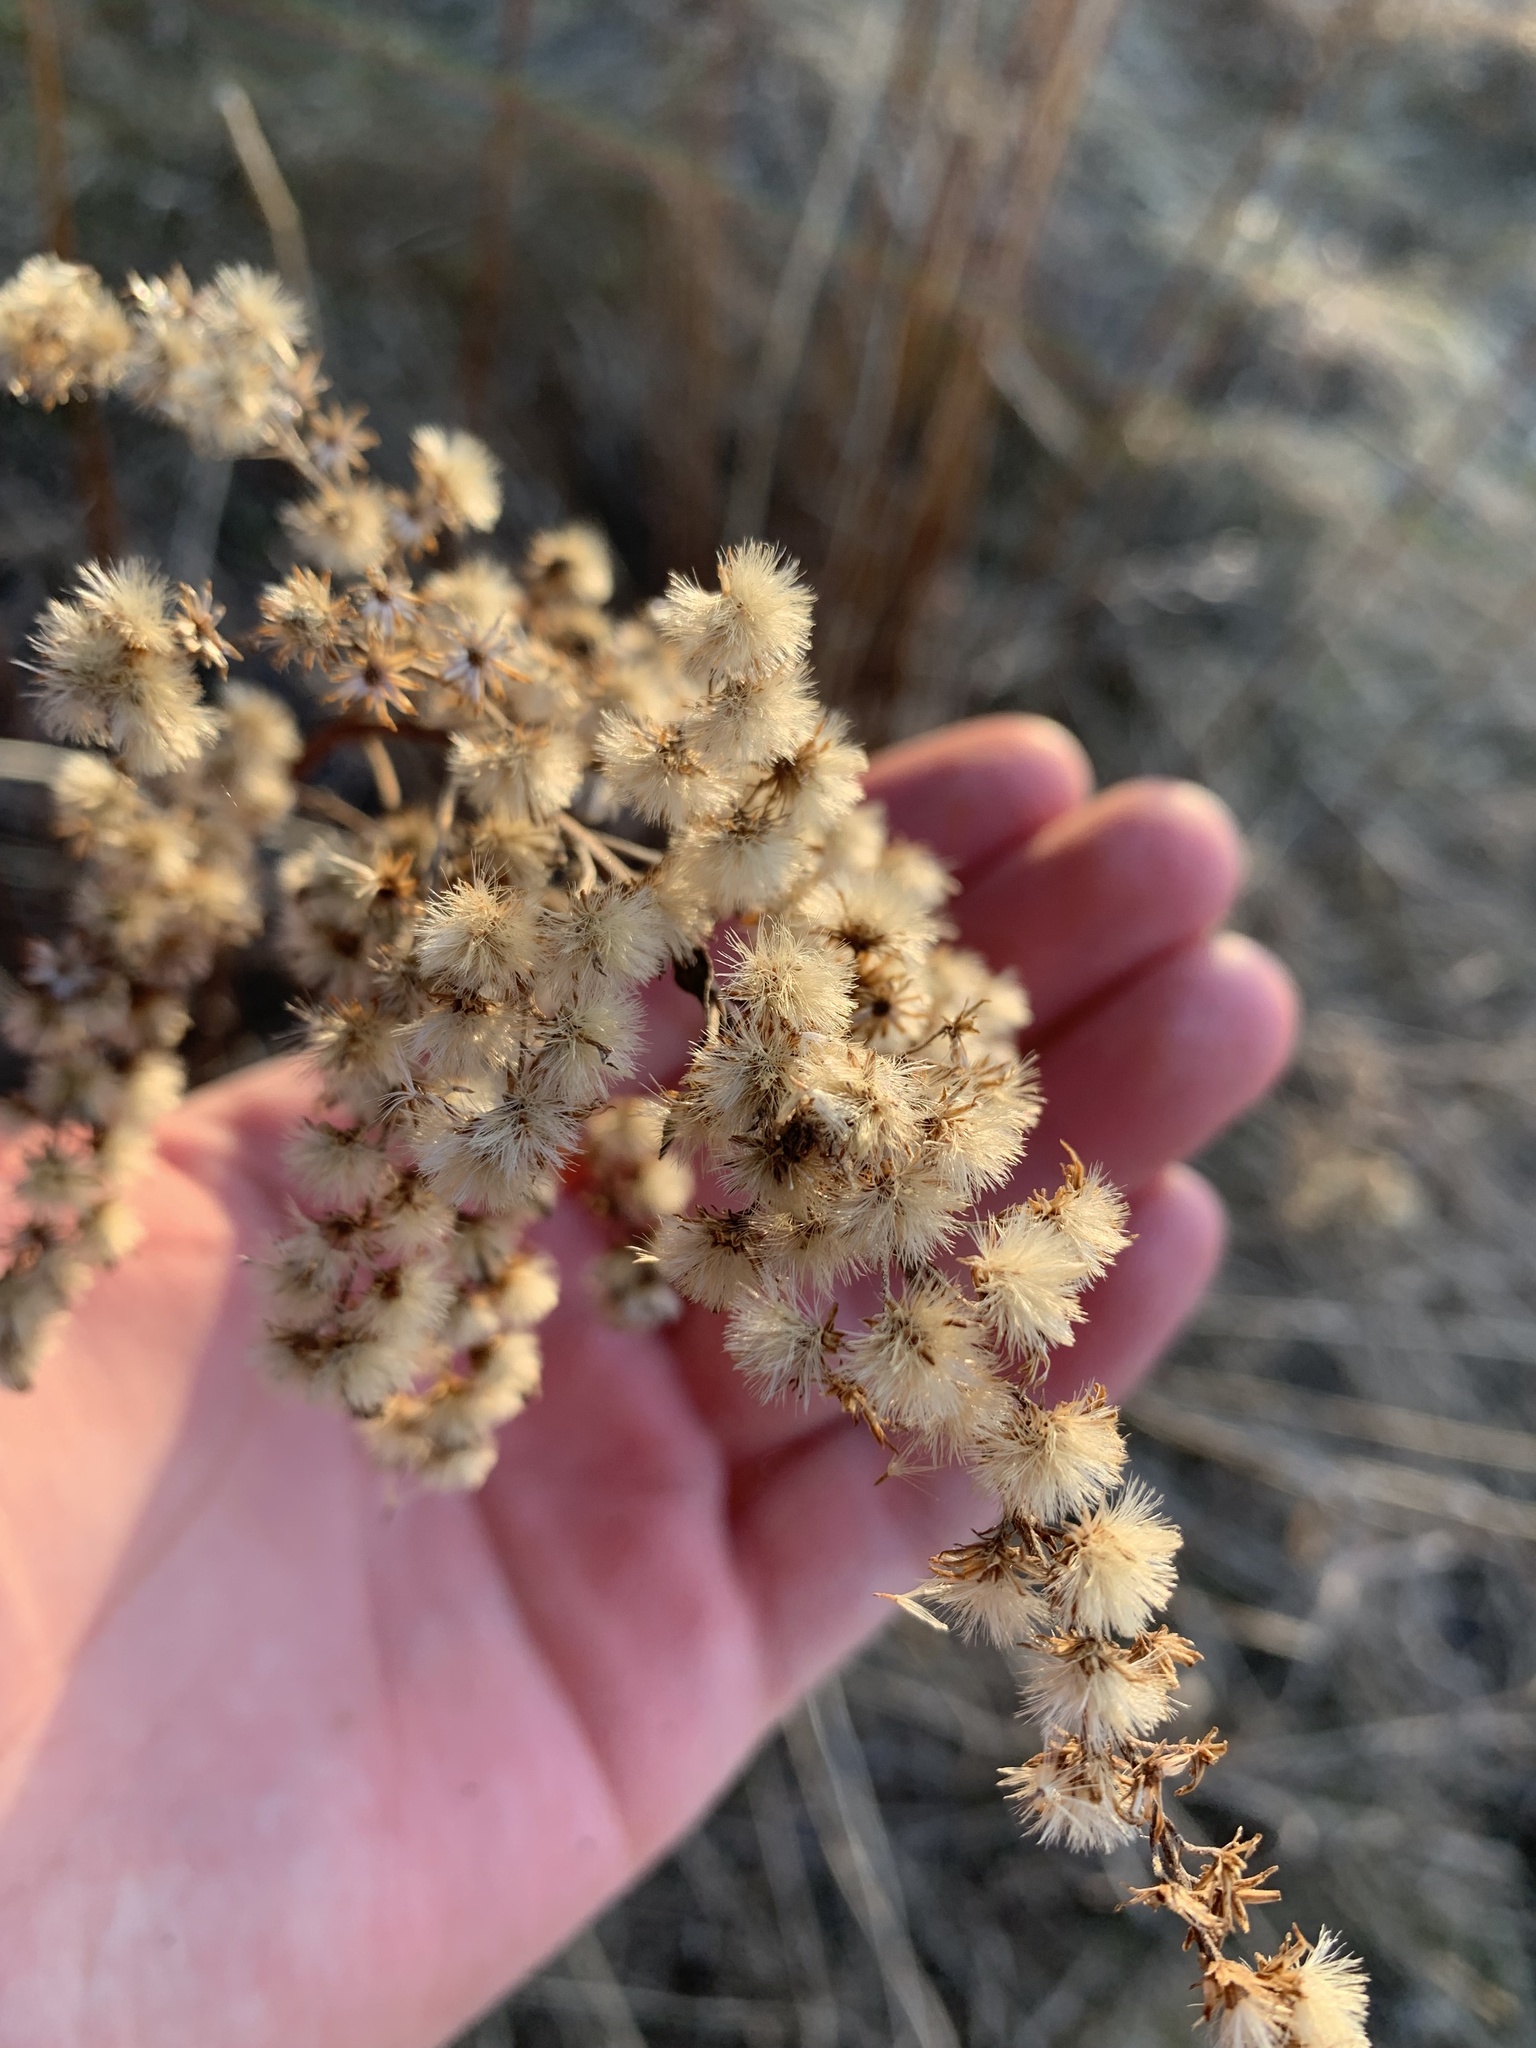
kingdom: Plantae
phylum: Tracheophyta
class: Magnoliopsida
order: Asterales
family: Asteraceae
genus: Solidago
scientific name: Solidago gigantea
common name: Giant goldenrod
